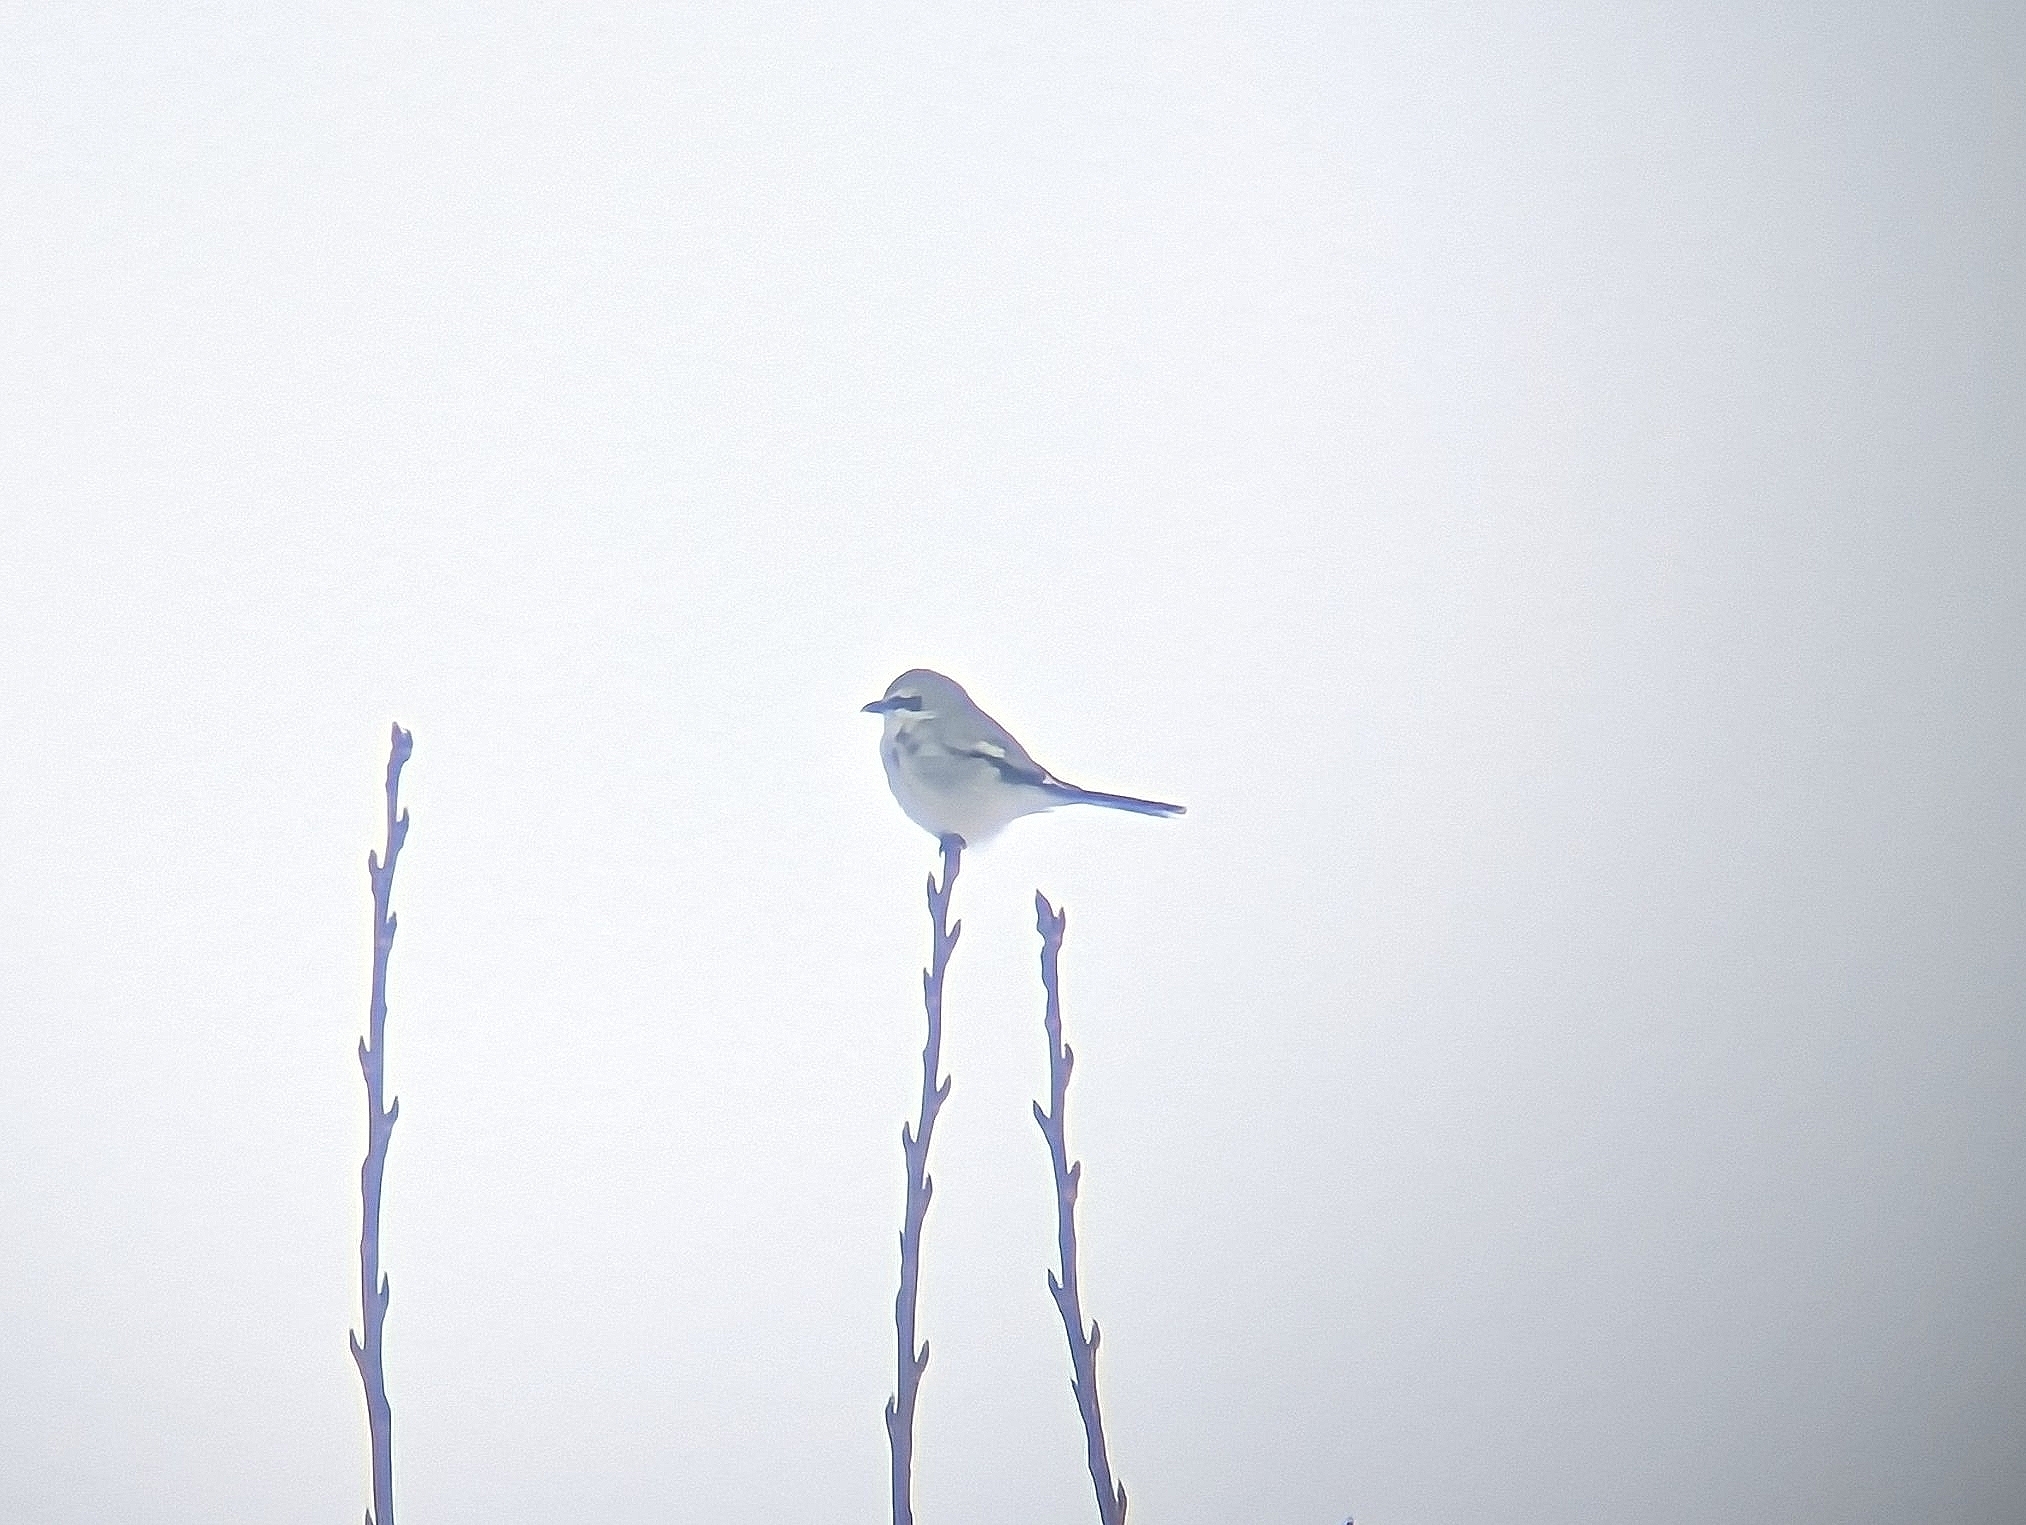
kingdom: Animalia
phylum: Chordata
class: Aves
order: Passeriformes
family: Laniidae
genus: Lanius
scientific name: Lanius borealis
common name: Northern shrike
